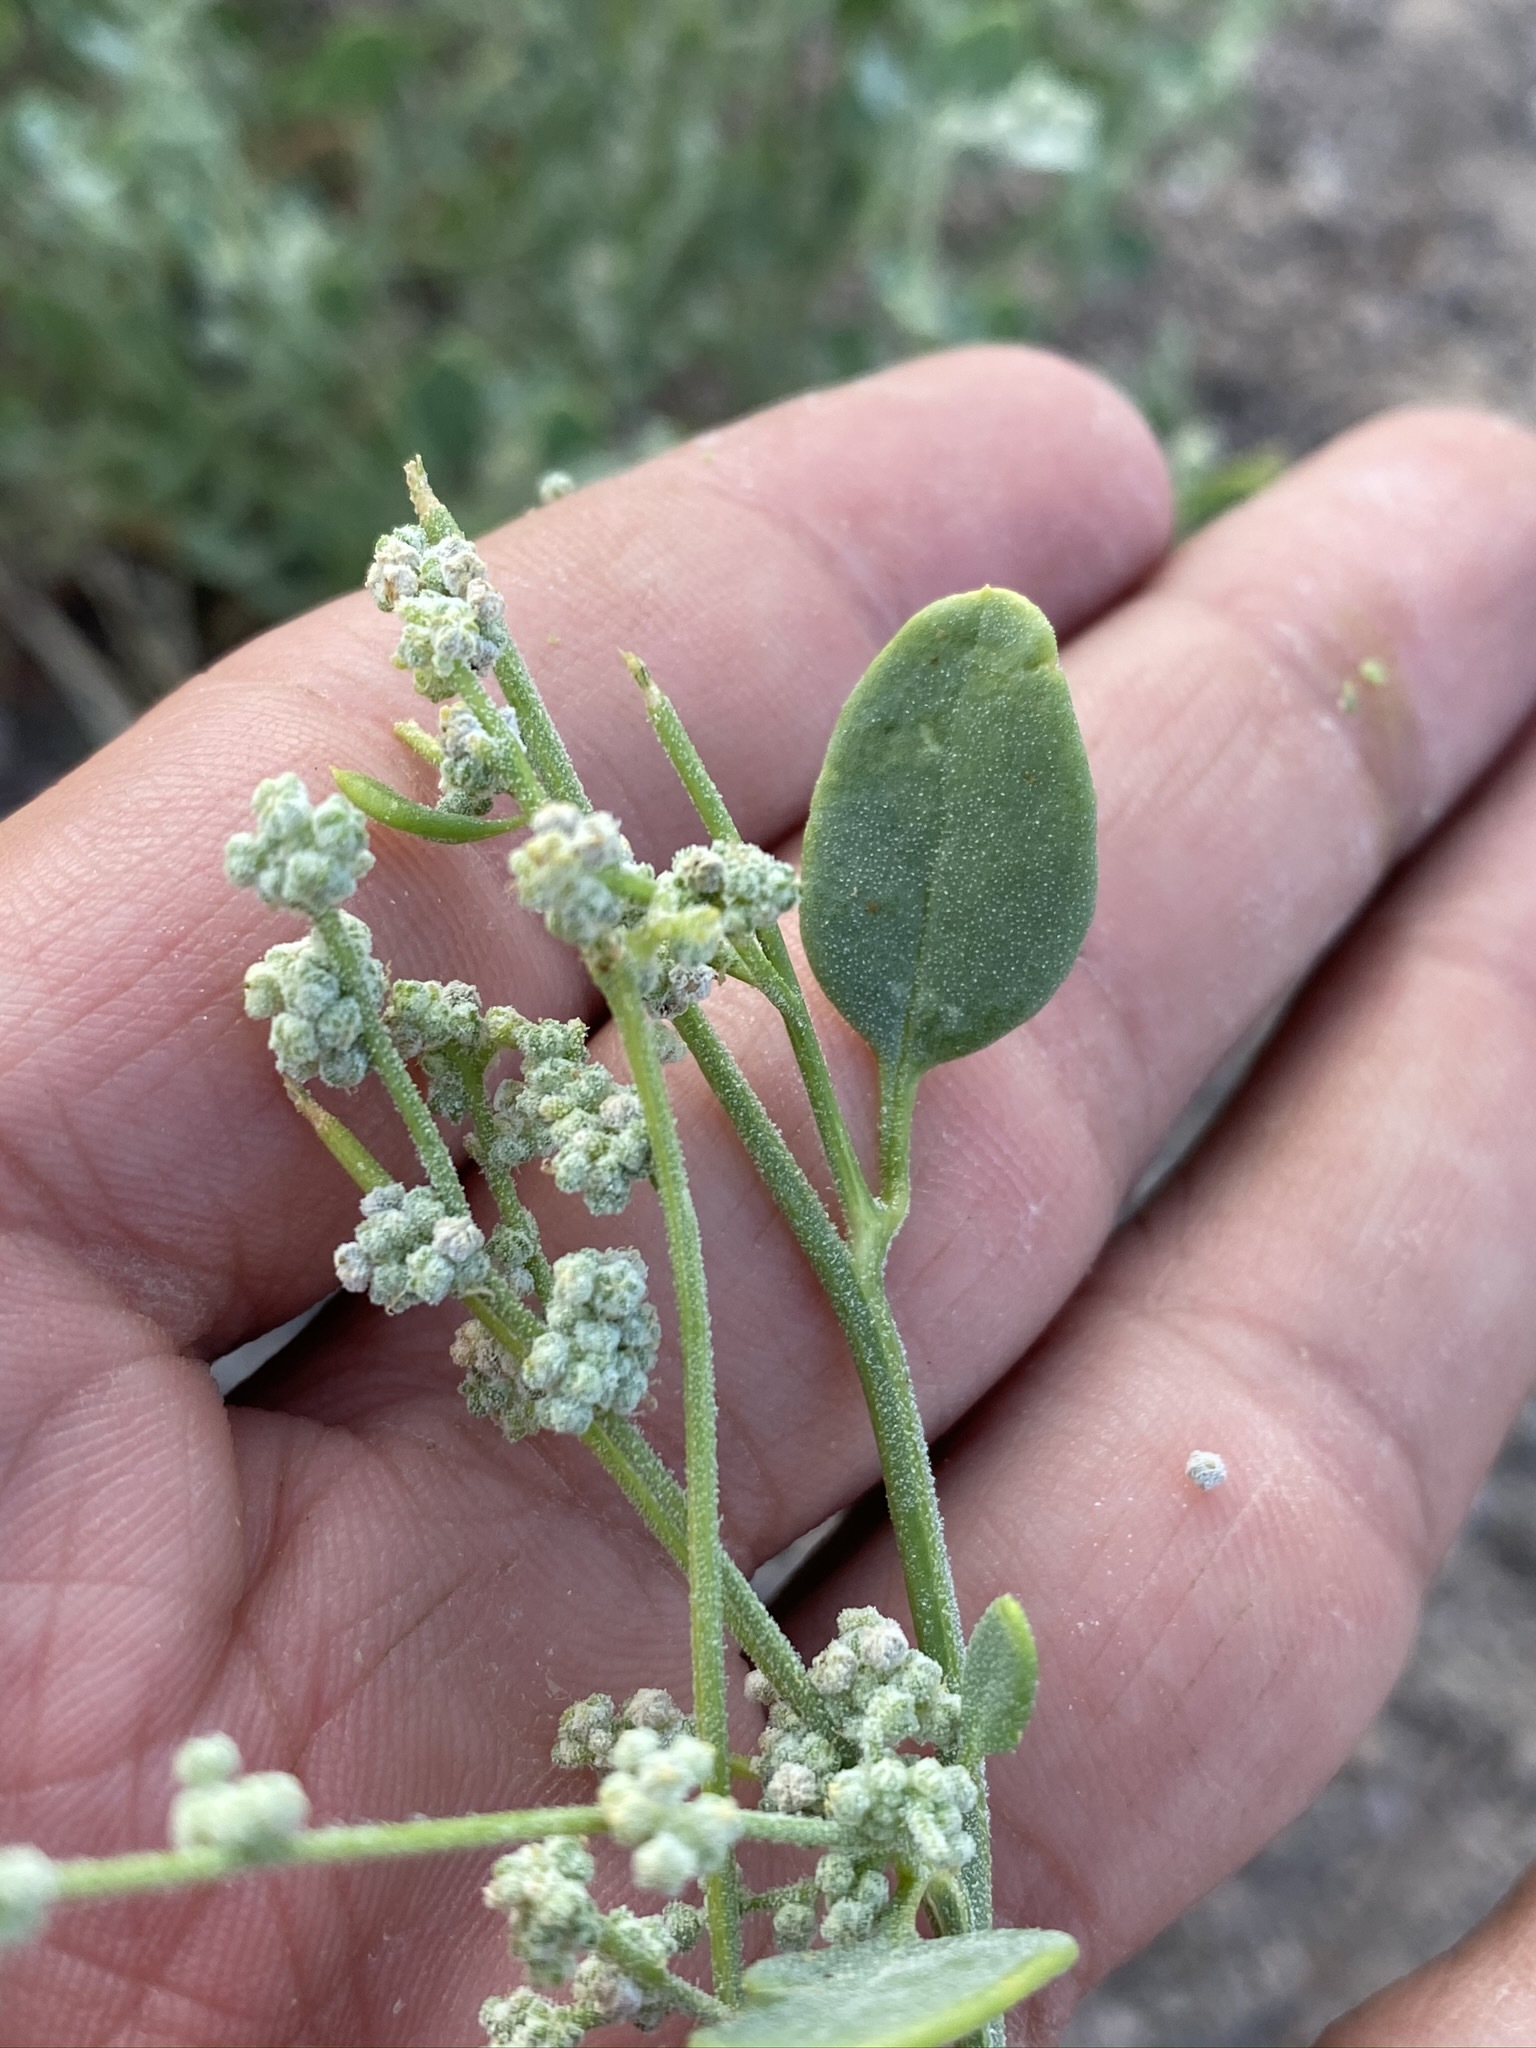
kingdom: Plantae
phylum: Tracheophyta
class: Magnoliopsida
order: Caryophyllales
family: Amaranthaceae
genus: Chenopodium
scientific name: Chenopodium incanum
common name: Hoary goosefoot
